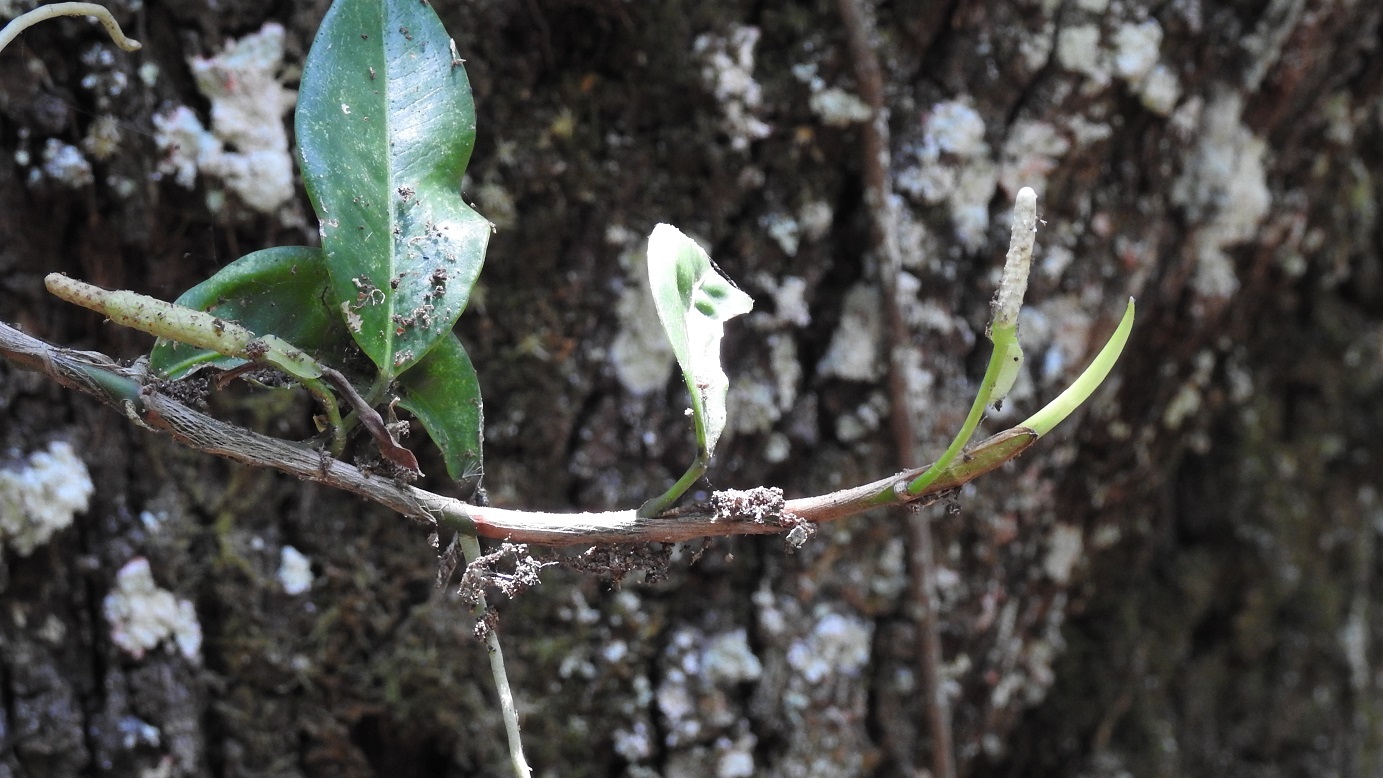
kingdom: Plantae
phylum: Tracheophyta
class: Liliopsida
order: Alismatales
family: Araceae
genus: Anthurium
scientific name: Anthurium scandens
